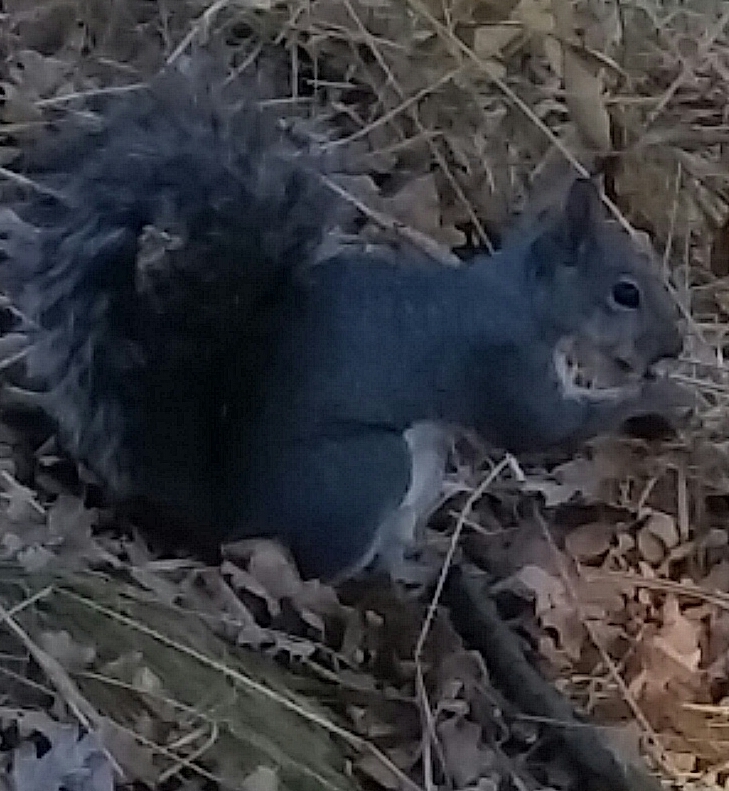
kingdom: Animalia
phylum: Chordata
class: Mammalia
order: Rodentia
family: Sciuridae
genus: Sciurus
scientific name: Sciurus griseus
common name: Western gray squirrel
